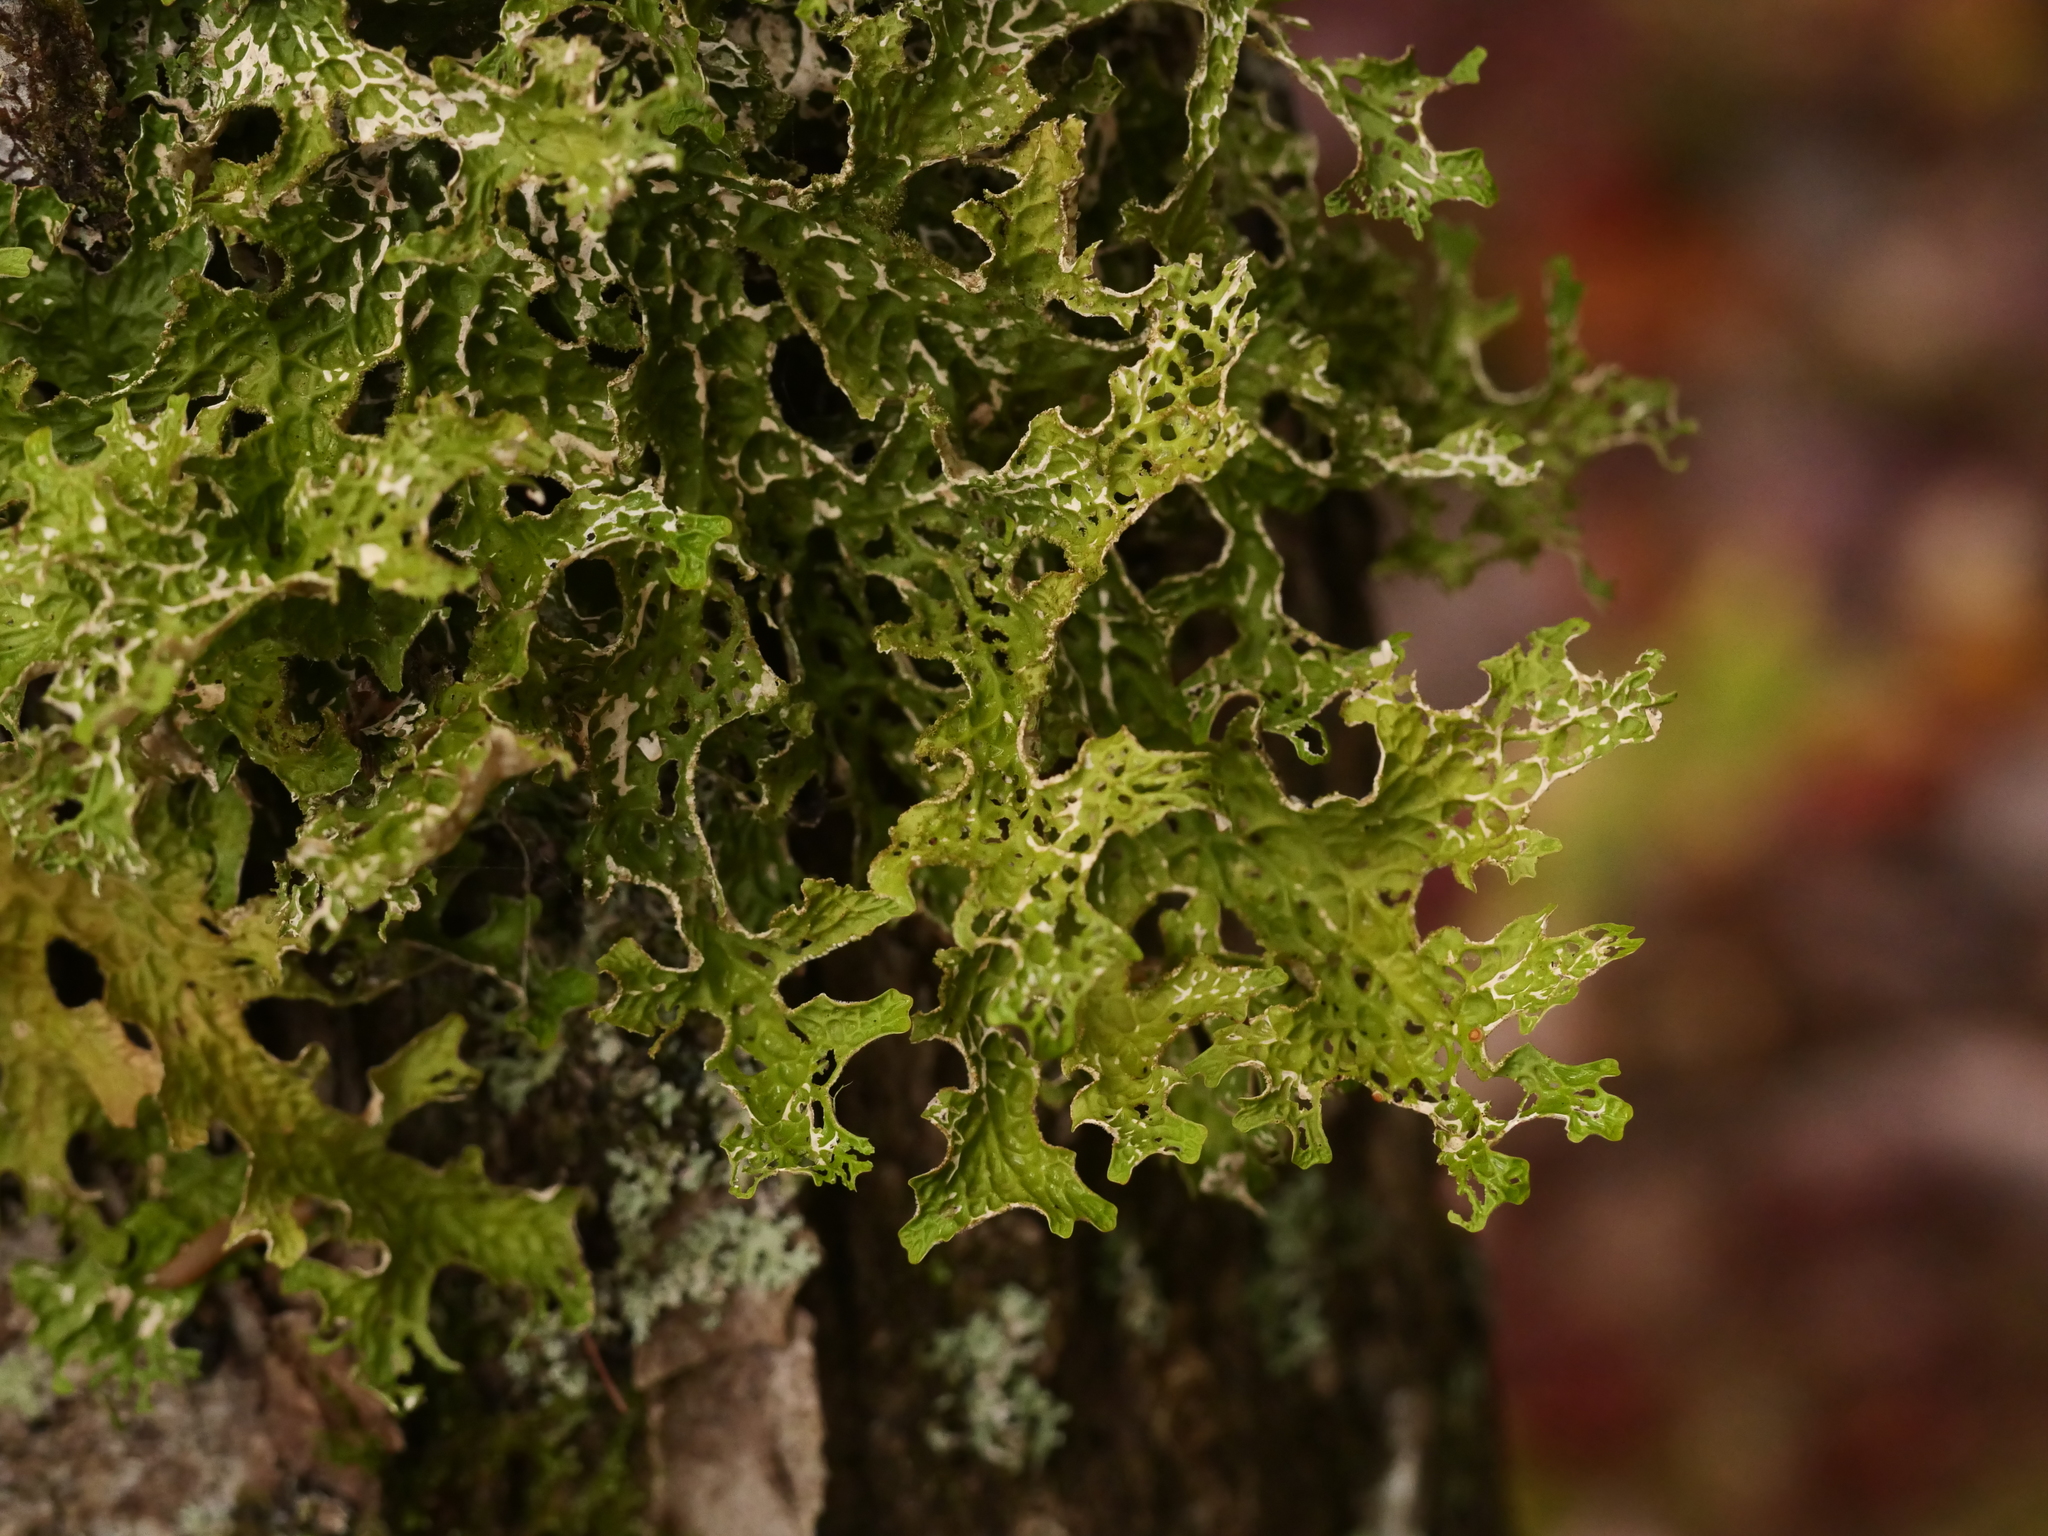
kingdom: Fungi
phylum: Ascomycota
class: Lecanoromycetes
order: Peltigerales
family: Lobariaceae
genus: Lobaria
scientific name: Lobaria pulmonaria
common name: Lungwort
